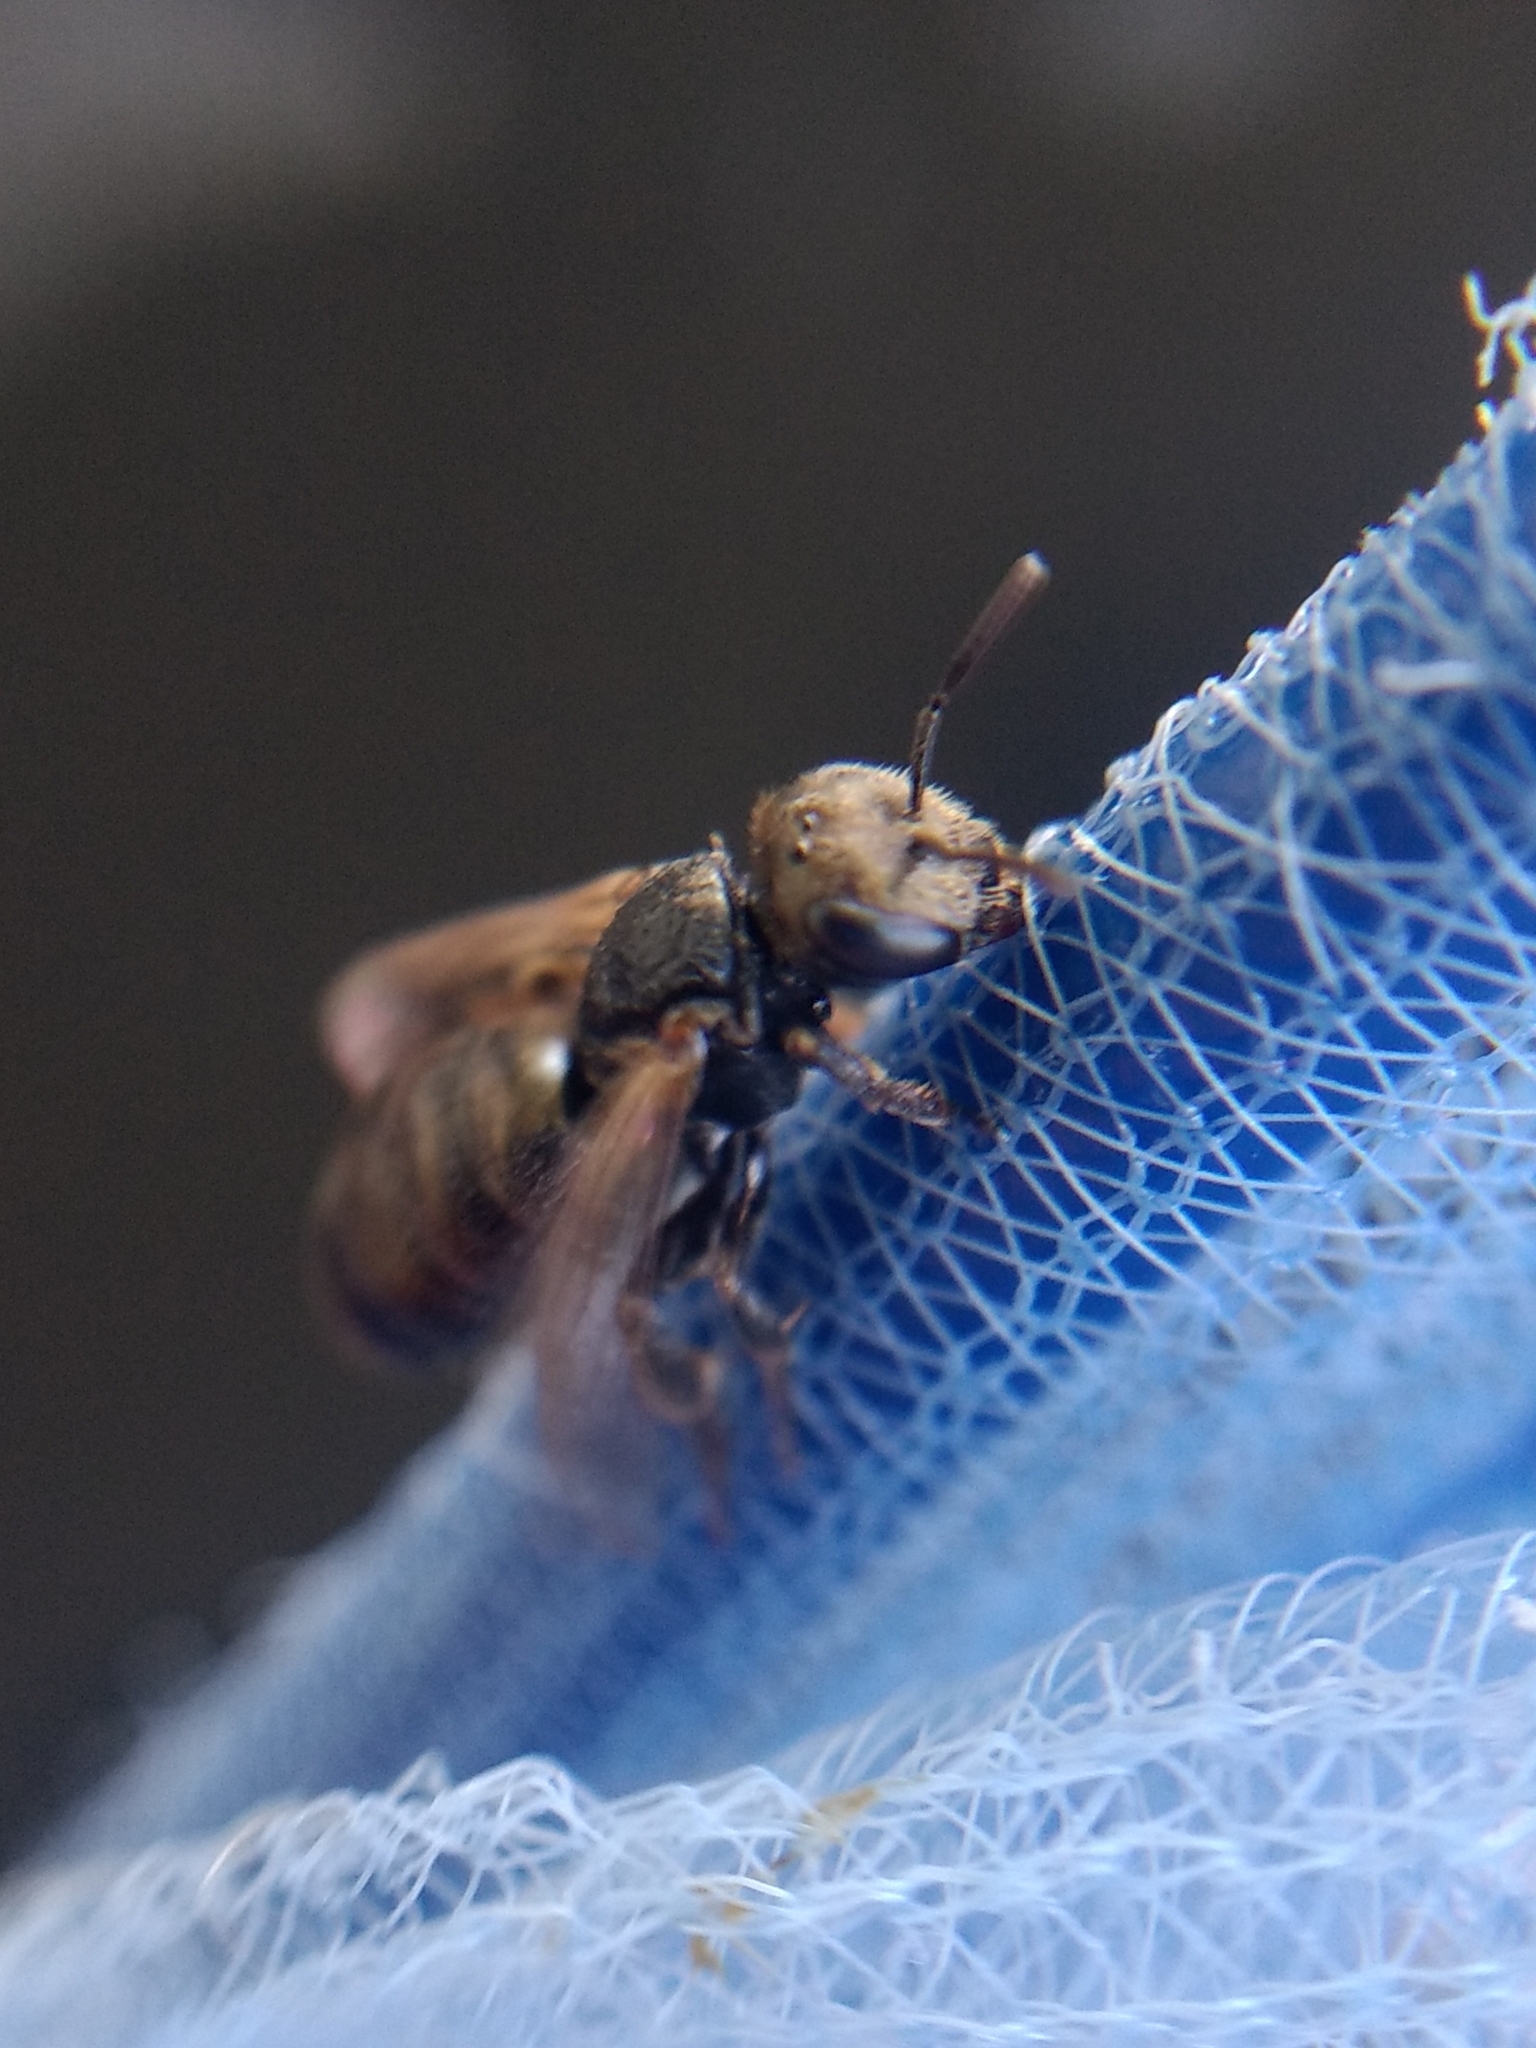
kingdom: Animalia
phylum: Arthropoda
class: Insecta
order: Hymenoptera
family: Halictidae
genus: Halictus
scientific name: Halictus tripartitus
